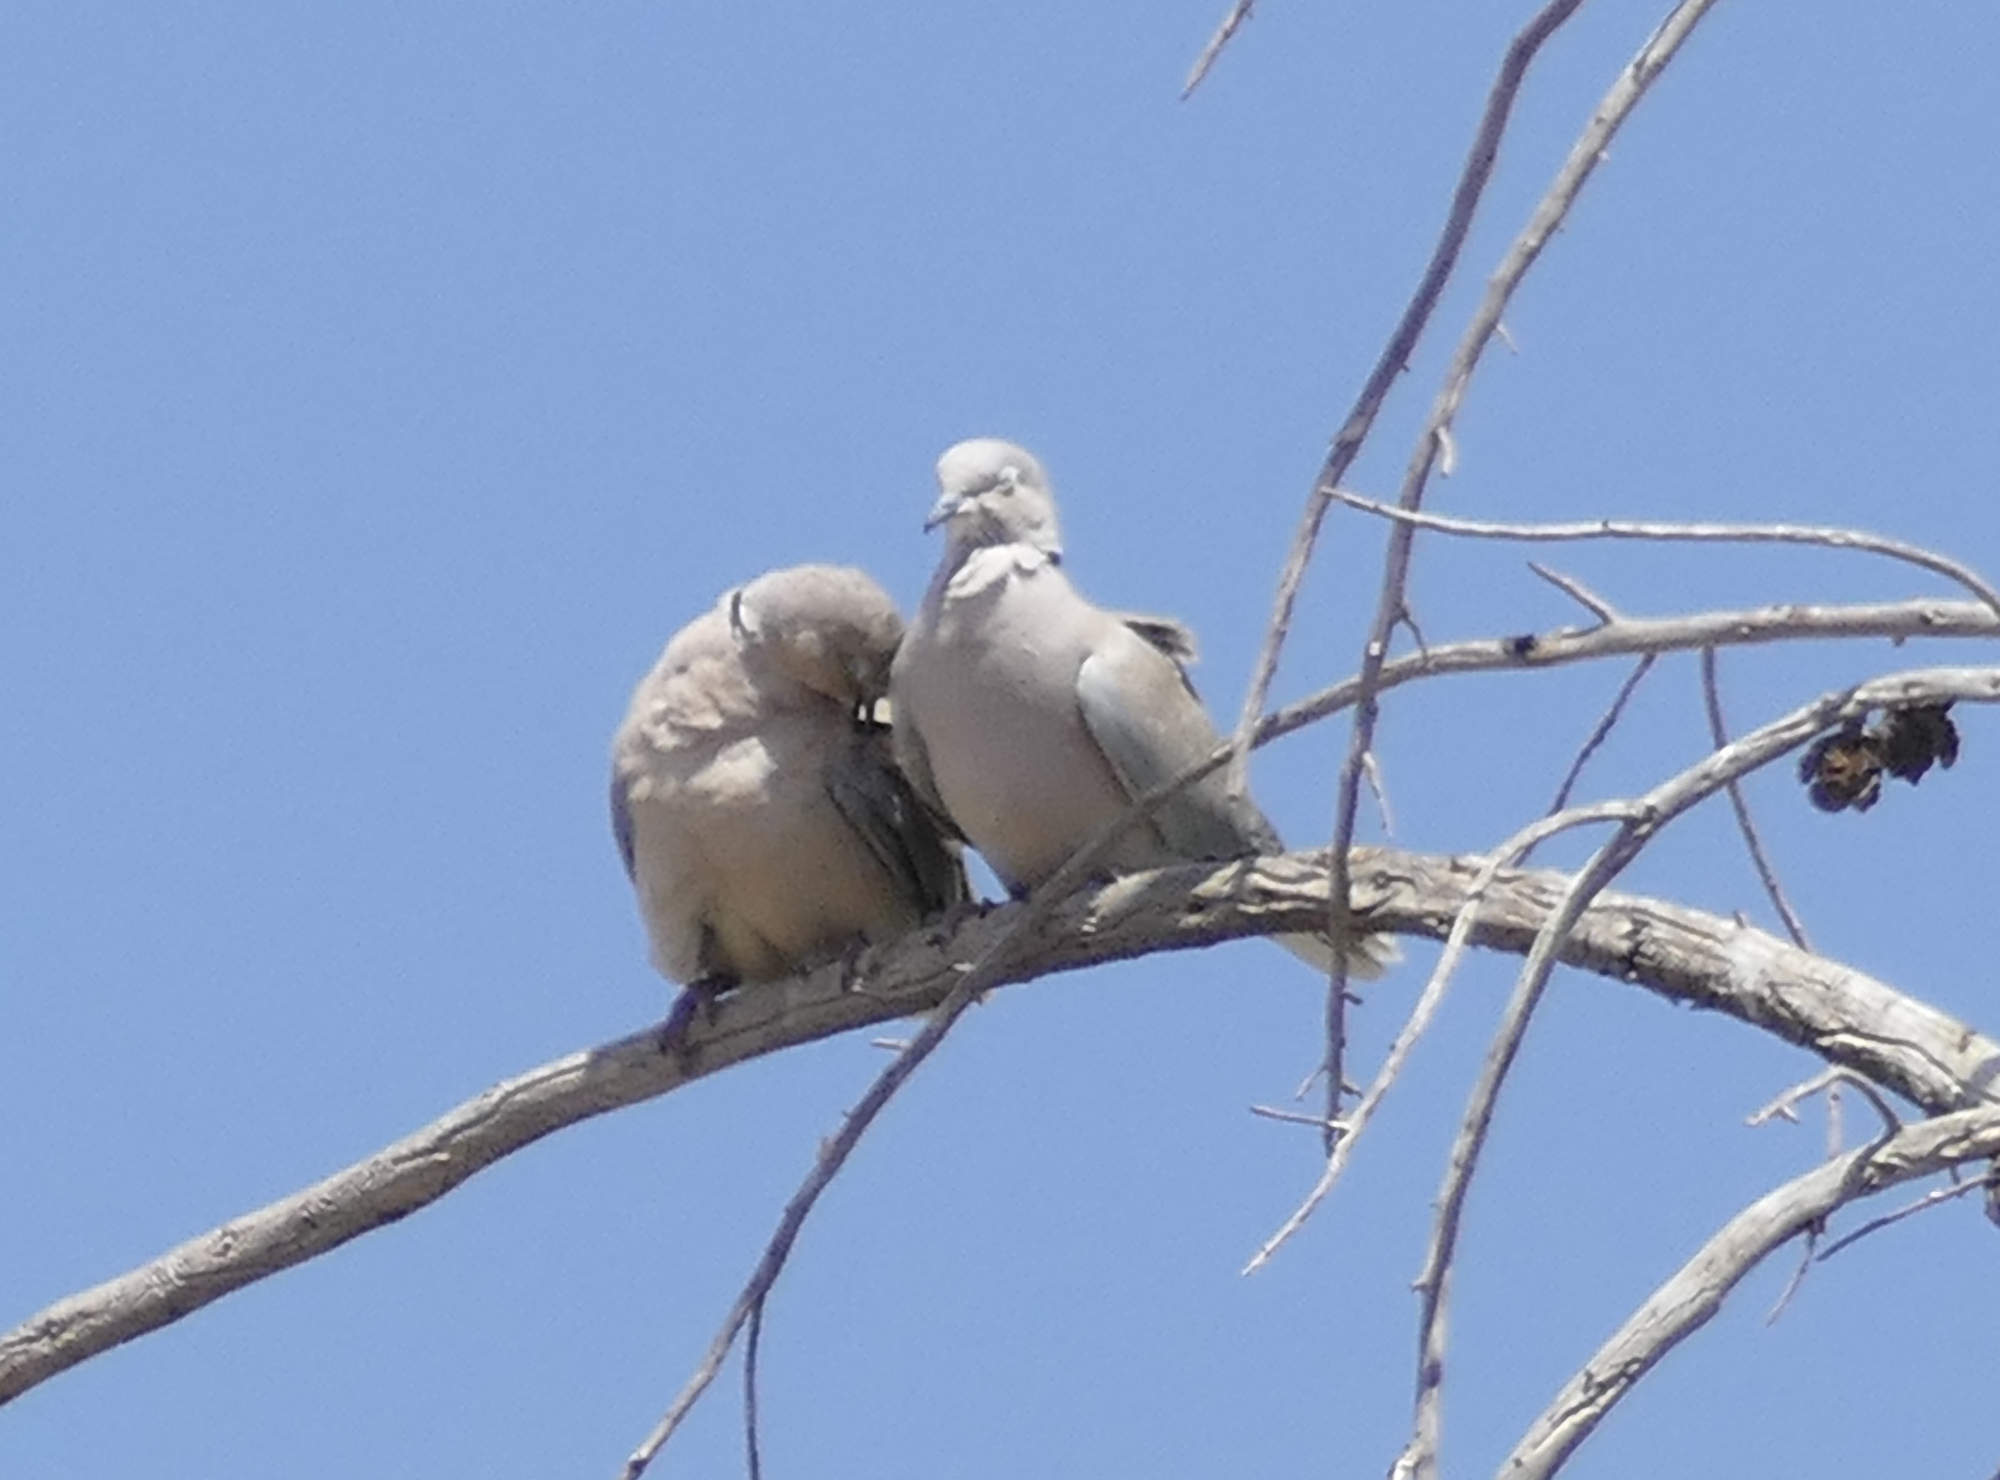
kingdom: Animalia
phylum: Chordata
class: Aves
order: Columbiformes
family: Columbidae
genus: Streptopelia
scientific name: Streptopelia decaocto
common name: Eurasian collared dove
